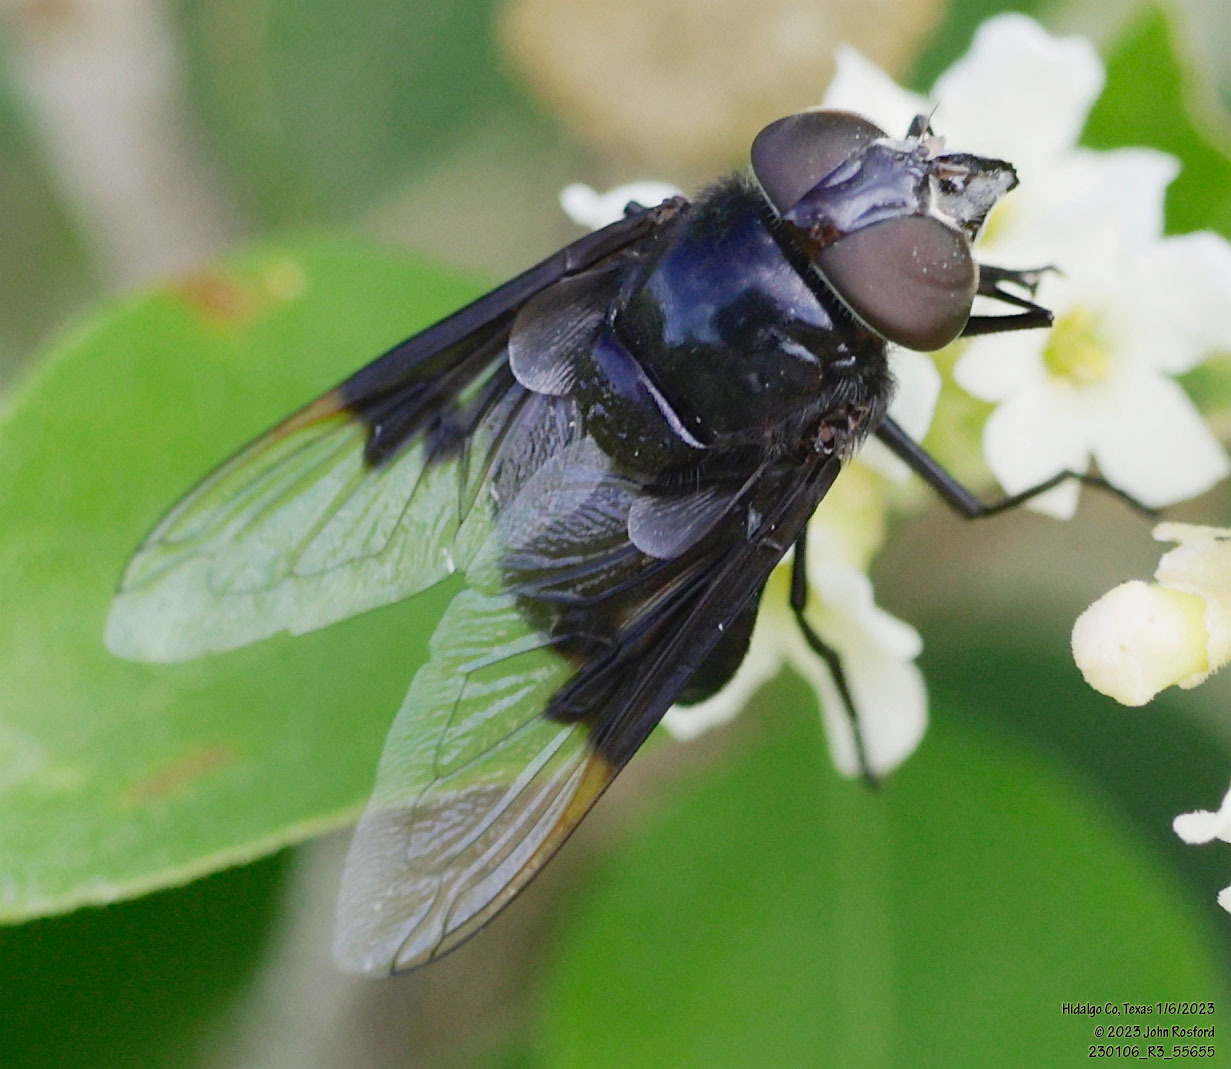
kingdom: Animalia
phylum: Arthropoda
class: Insecta
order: Diptera
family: Syrphidae
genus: Copestylum
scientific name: Copestylum
